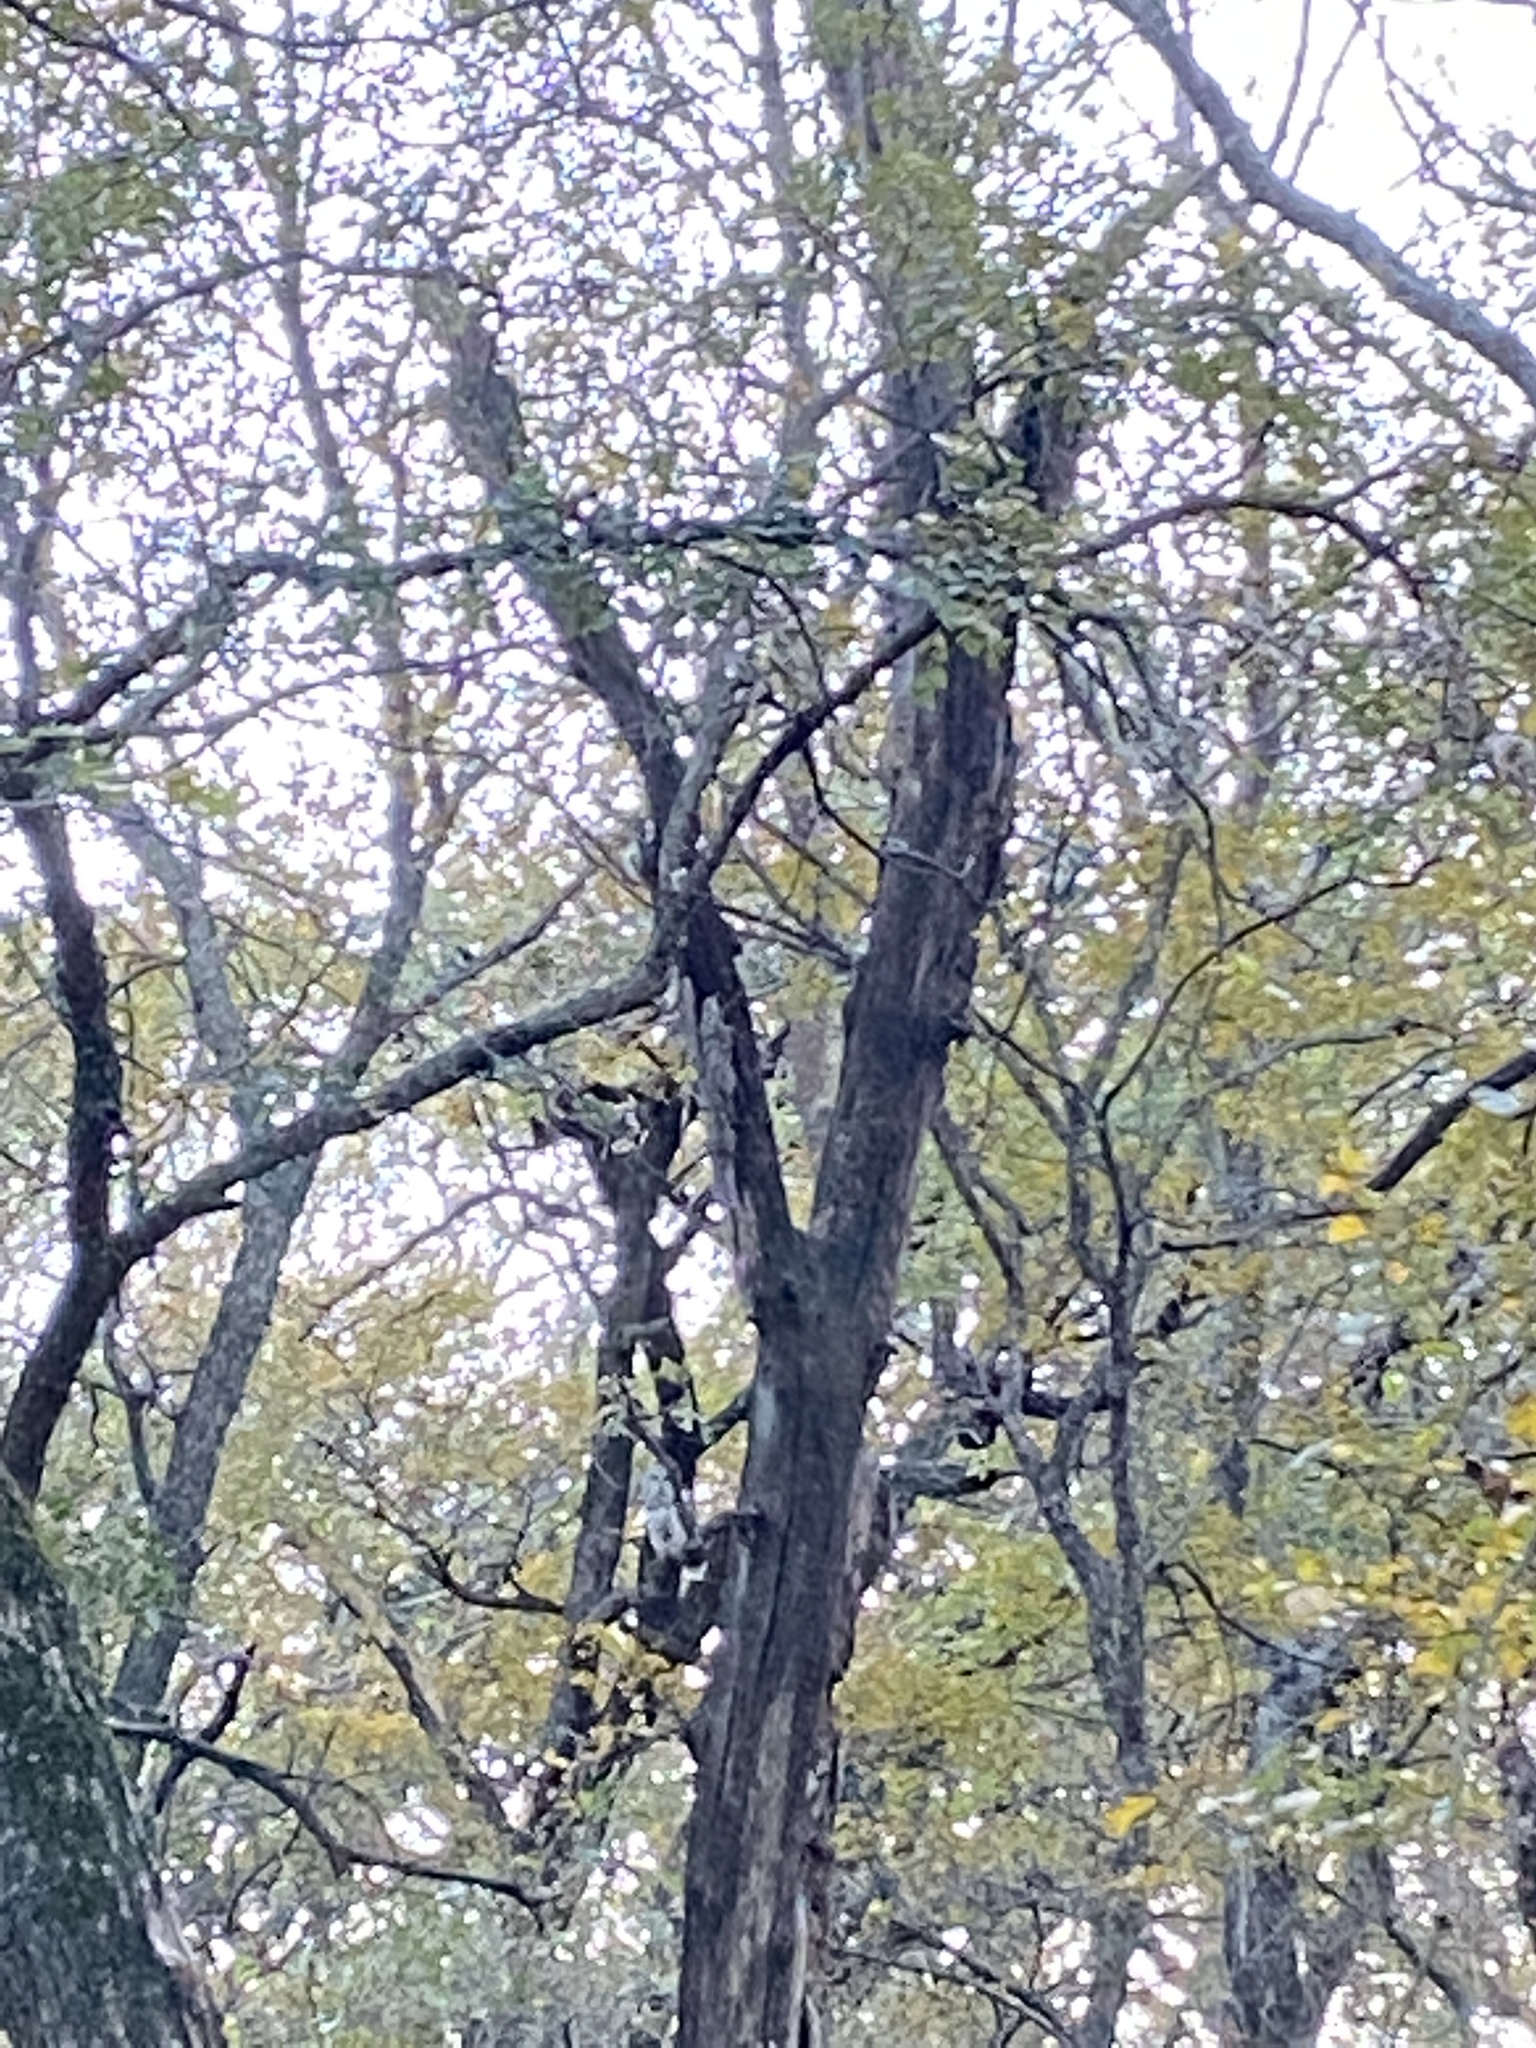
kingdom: Animalia
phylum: Chordata
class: Aves
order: Strigiformes
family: Strigidae
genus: Strix
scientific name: Strix varia
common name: Barred owl
